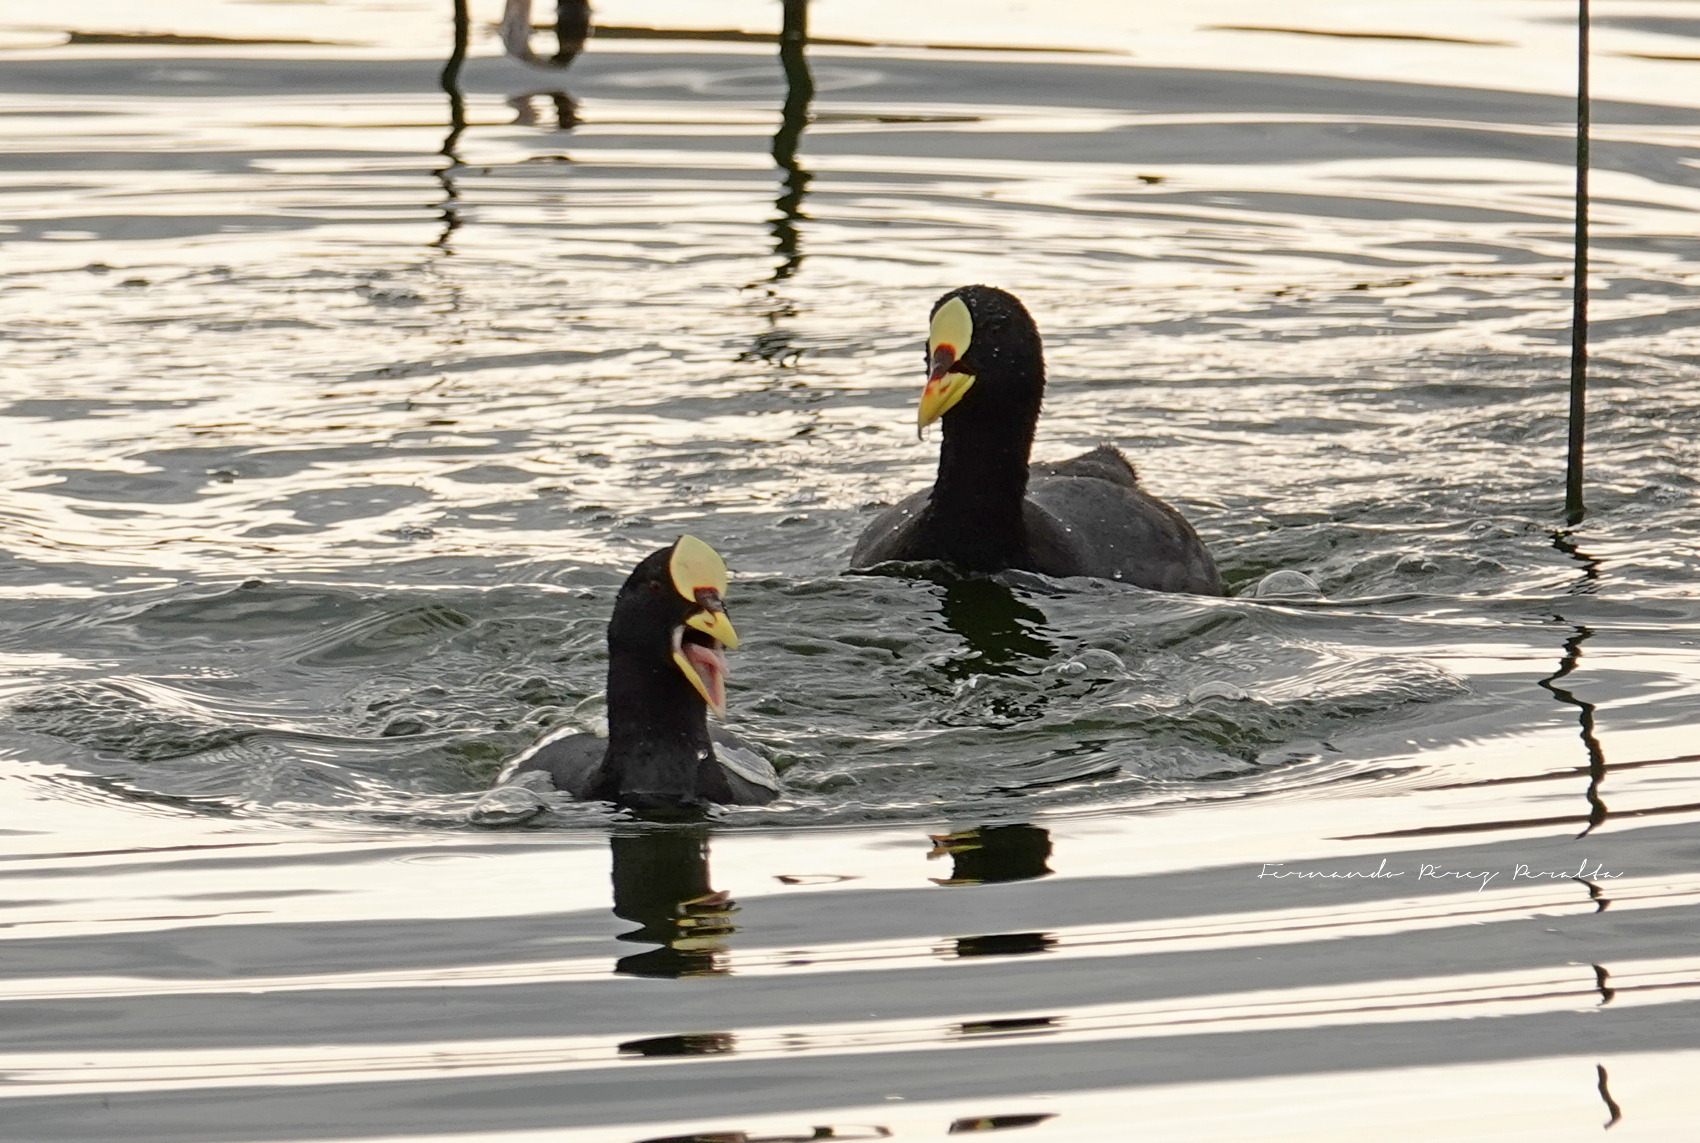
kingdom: Animalia
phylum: Chordata
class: Aves
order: Gruiformes
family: Rallidae
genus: Fulica
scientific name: Fulica armillata
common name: Red-gartered coot
